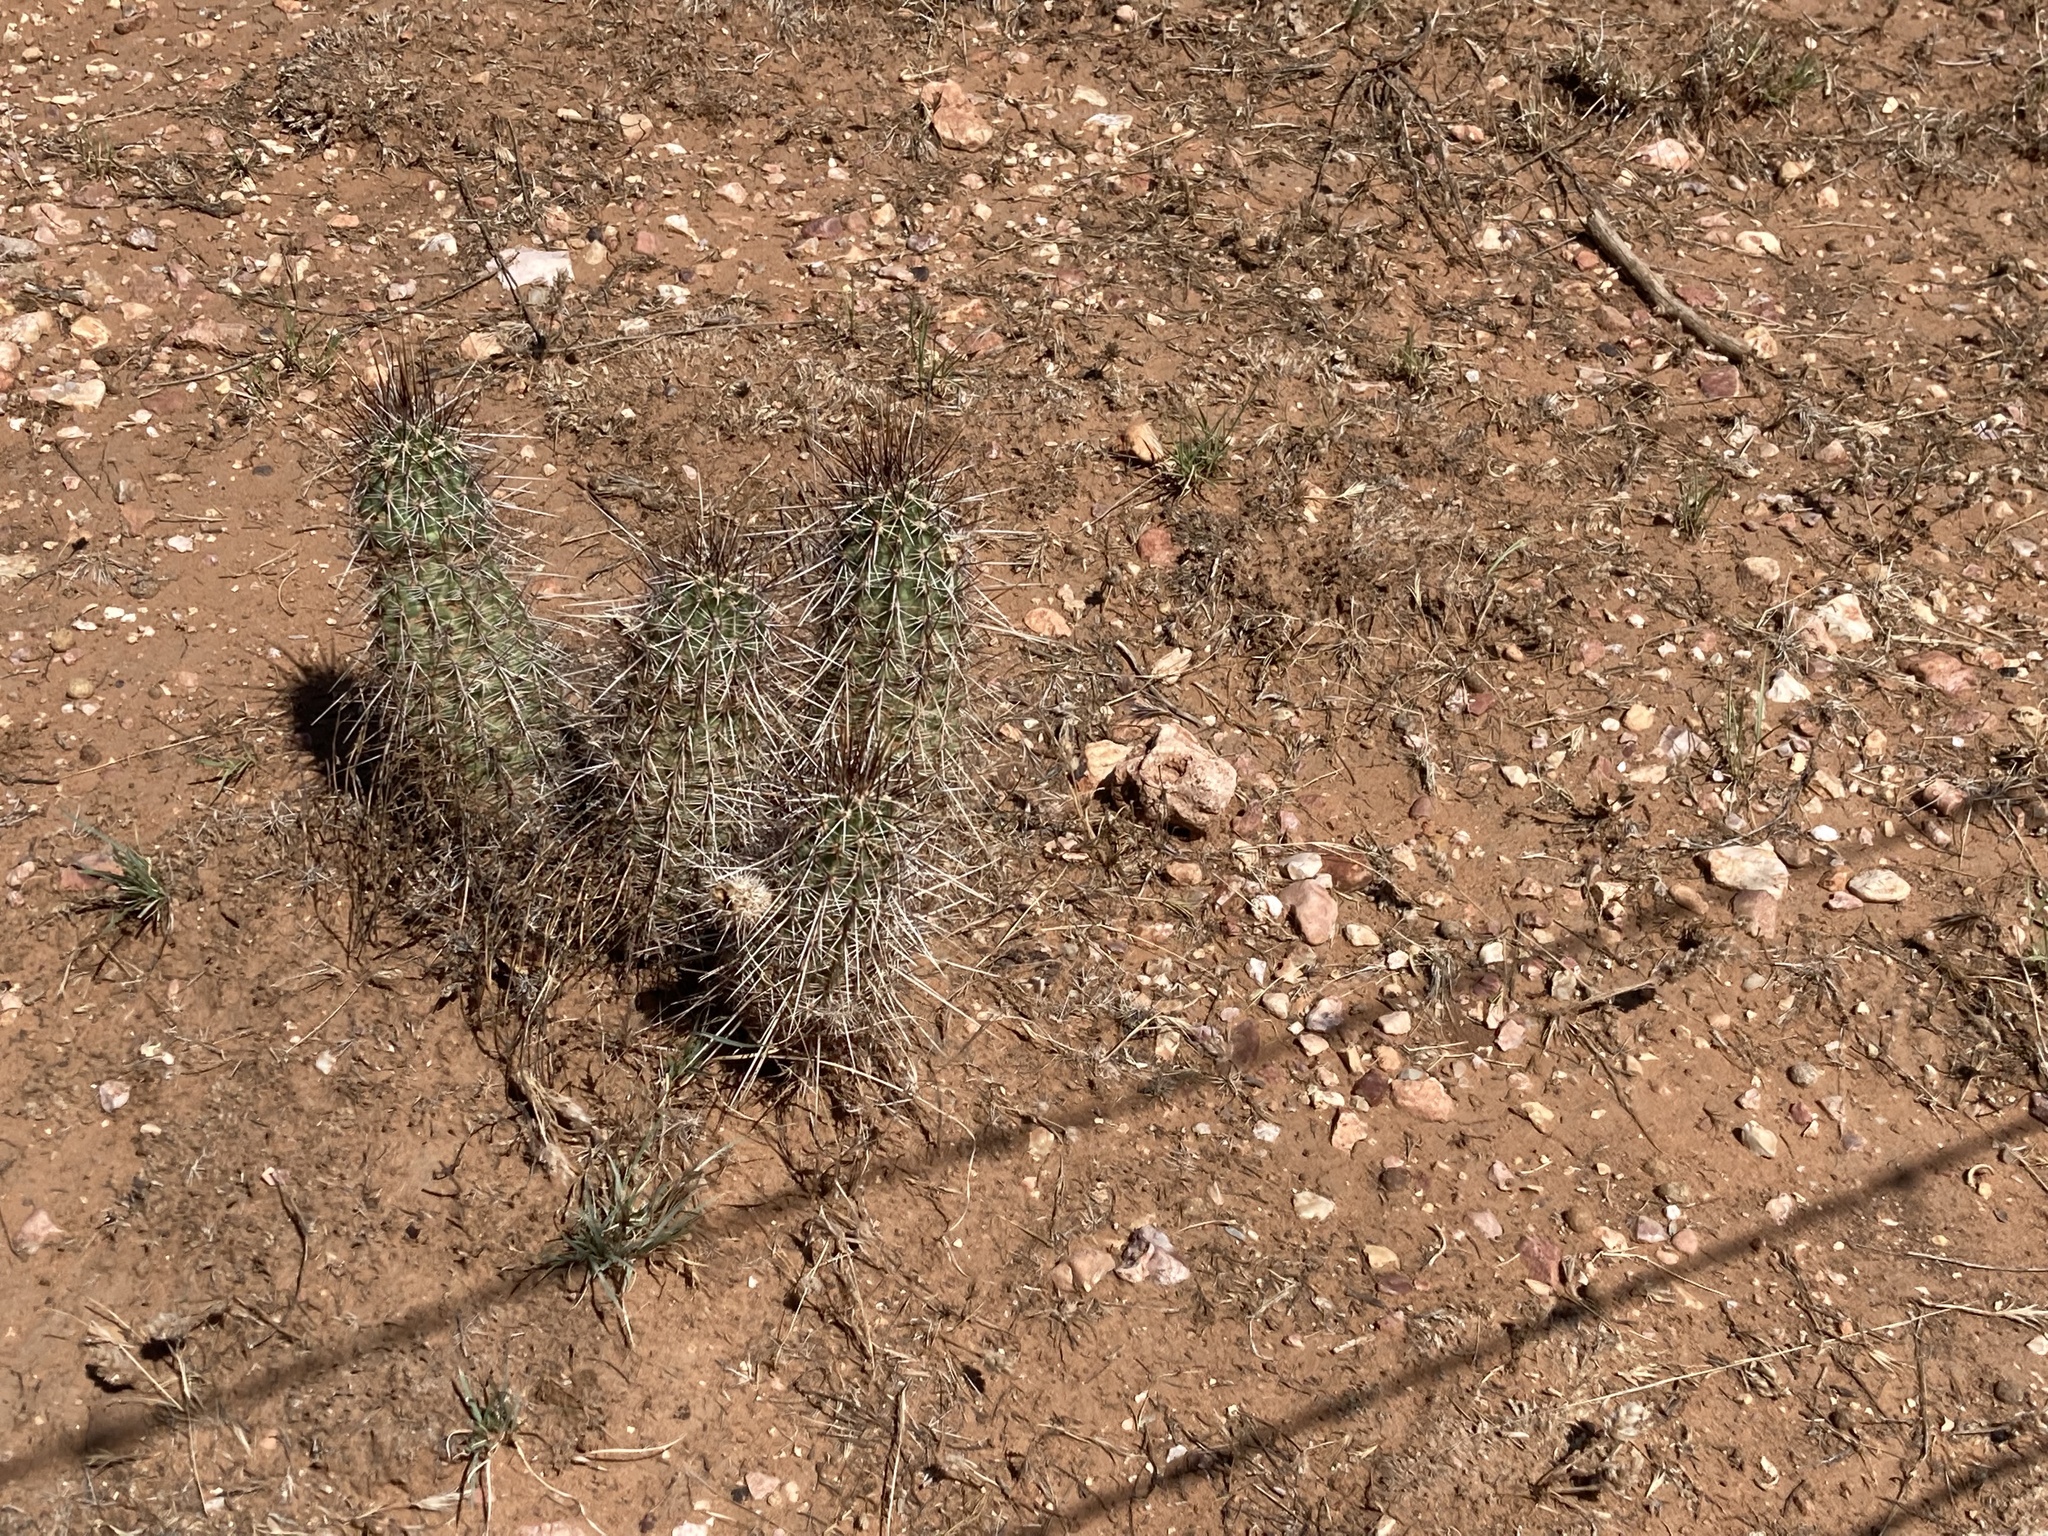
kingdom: Plantae
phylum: Tracheophyta
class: Magnoliopsida
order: Caryophyllales
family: Cactaceae
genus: Echinocereus
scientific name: Echinocereus fasciculatus
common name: Bundle hedgehog
